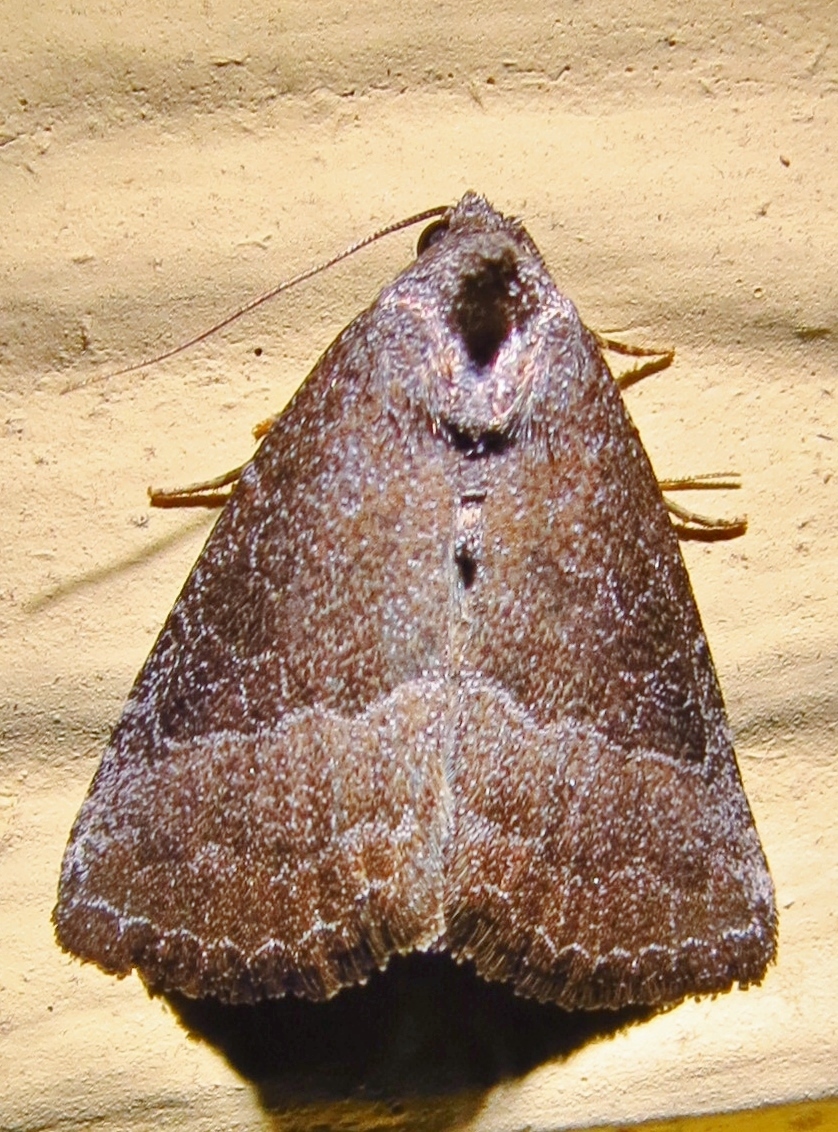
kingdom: Animalia
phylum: Arthropoda
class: Insecta
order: Lepidoptera
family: Noctuidae
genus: Ogdoconta
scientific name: Ogdoconta cinereola
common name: Common pinkband
